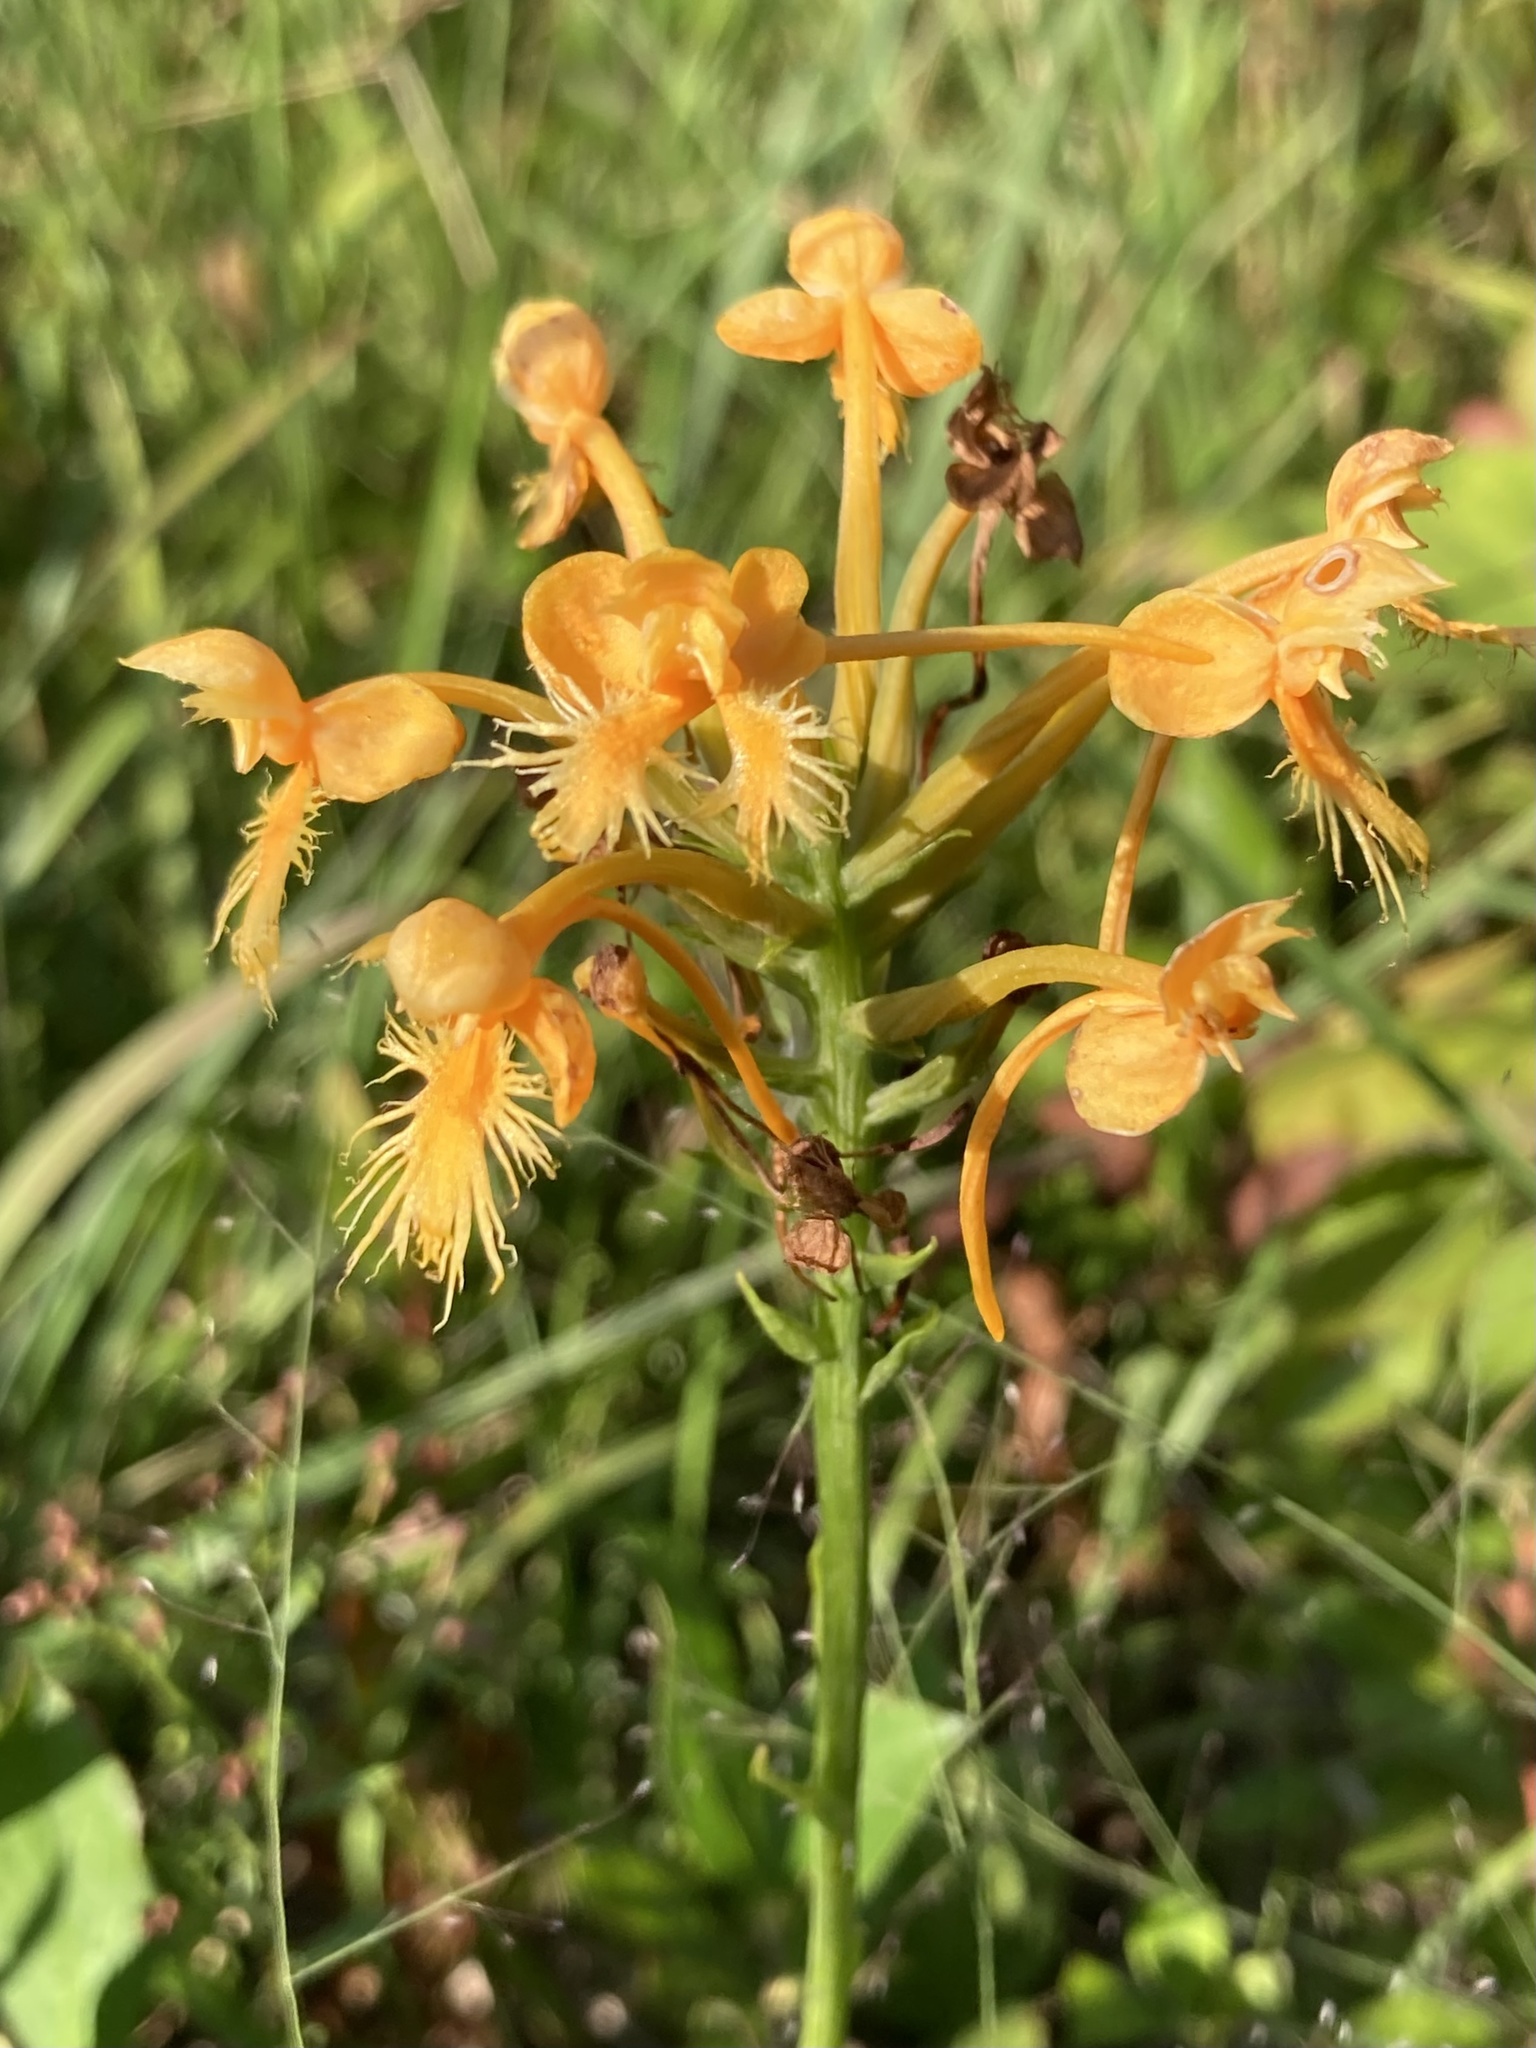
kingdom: Plantae
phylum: Tracheophyta
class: Liliopsida
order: Asparagales
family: Orchidaceae
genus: Platanthera
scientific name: Platanthera ciliaris
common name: Yellow fringed orchid
